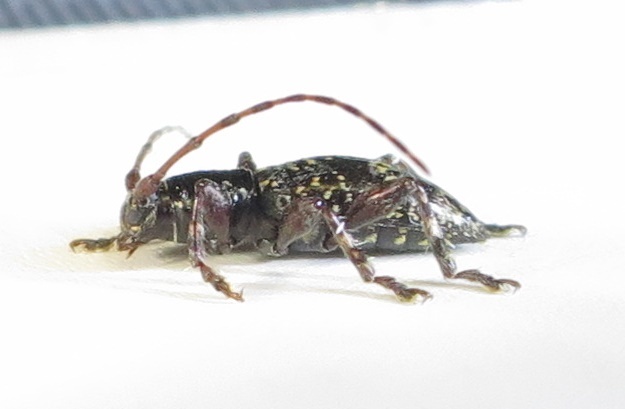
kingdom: Animalia
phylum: Arthropoda
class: Insecta
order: Coleoptera
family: Cerambycidae
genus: Xylotoles
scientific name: Xylotoles laetus
